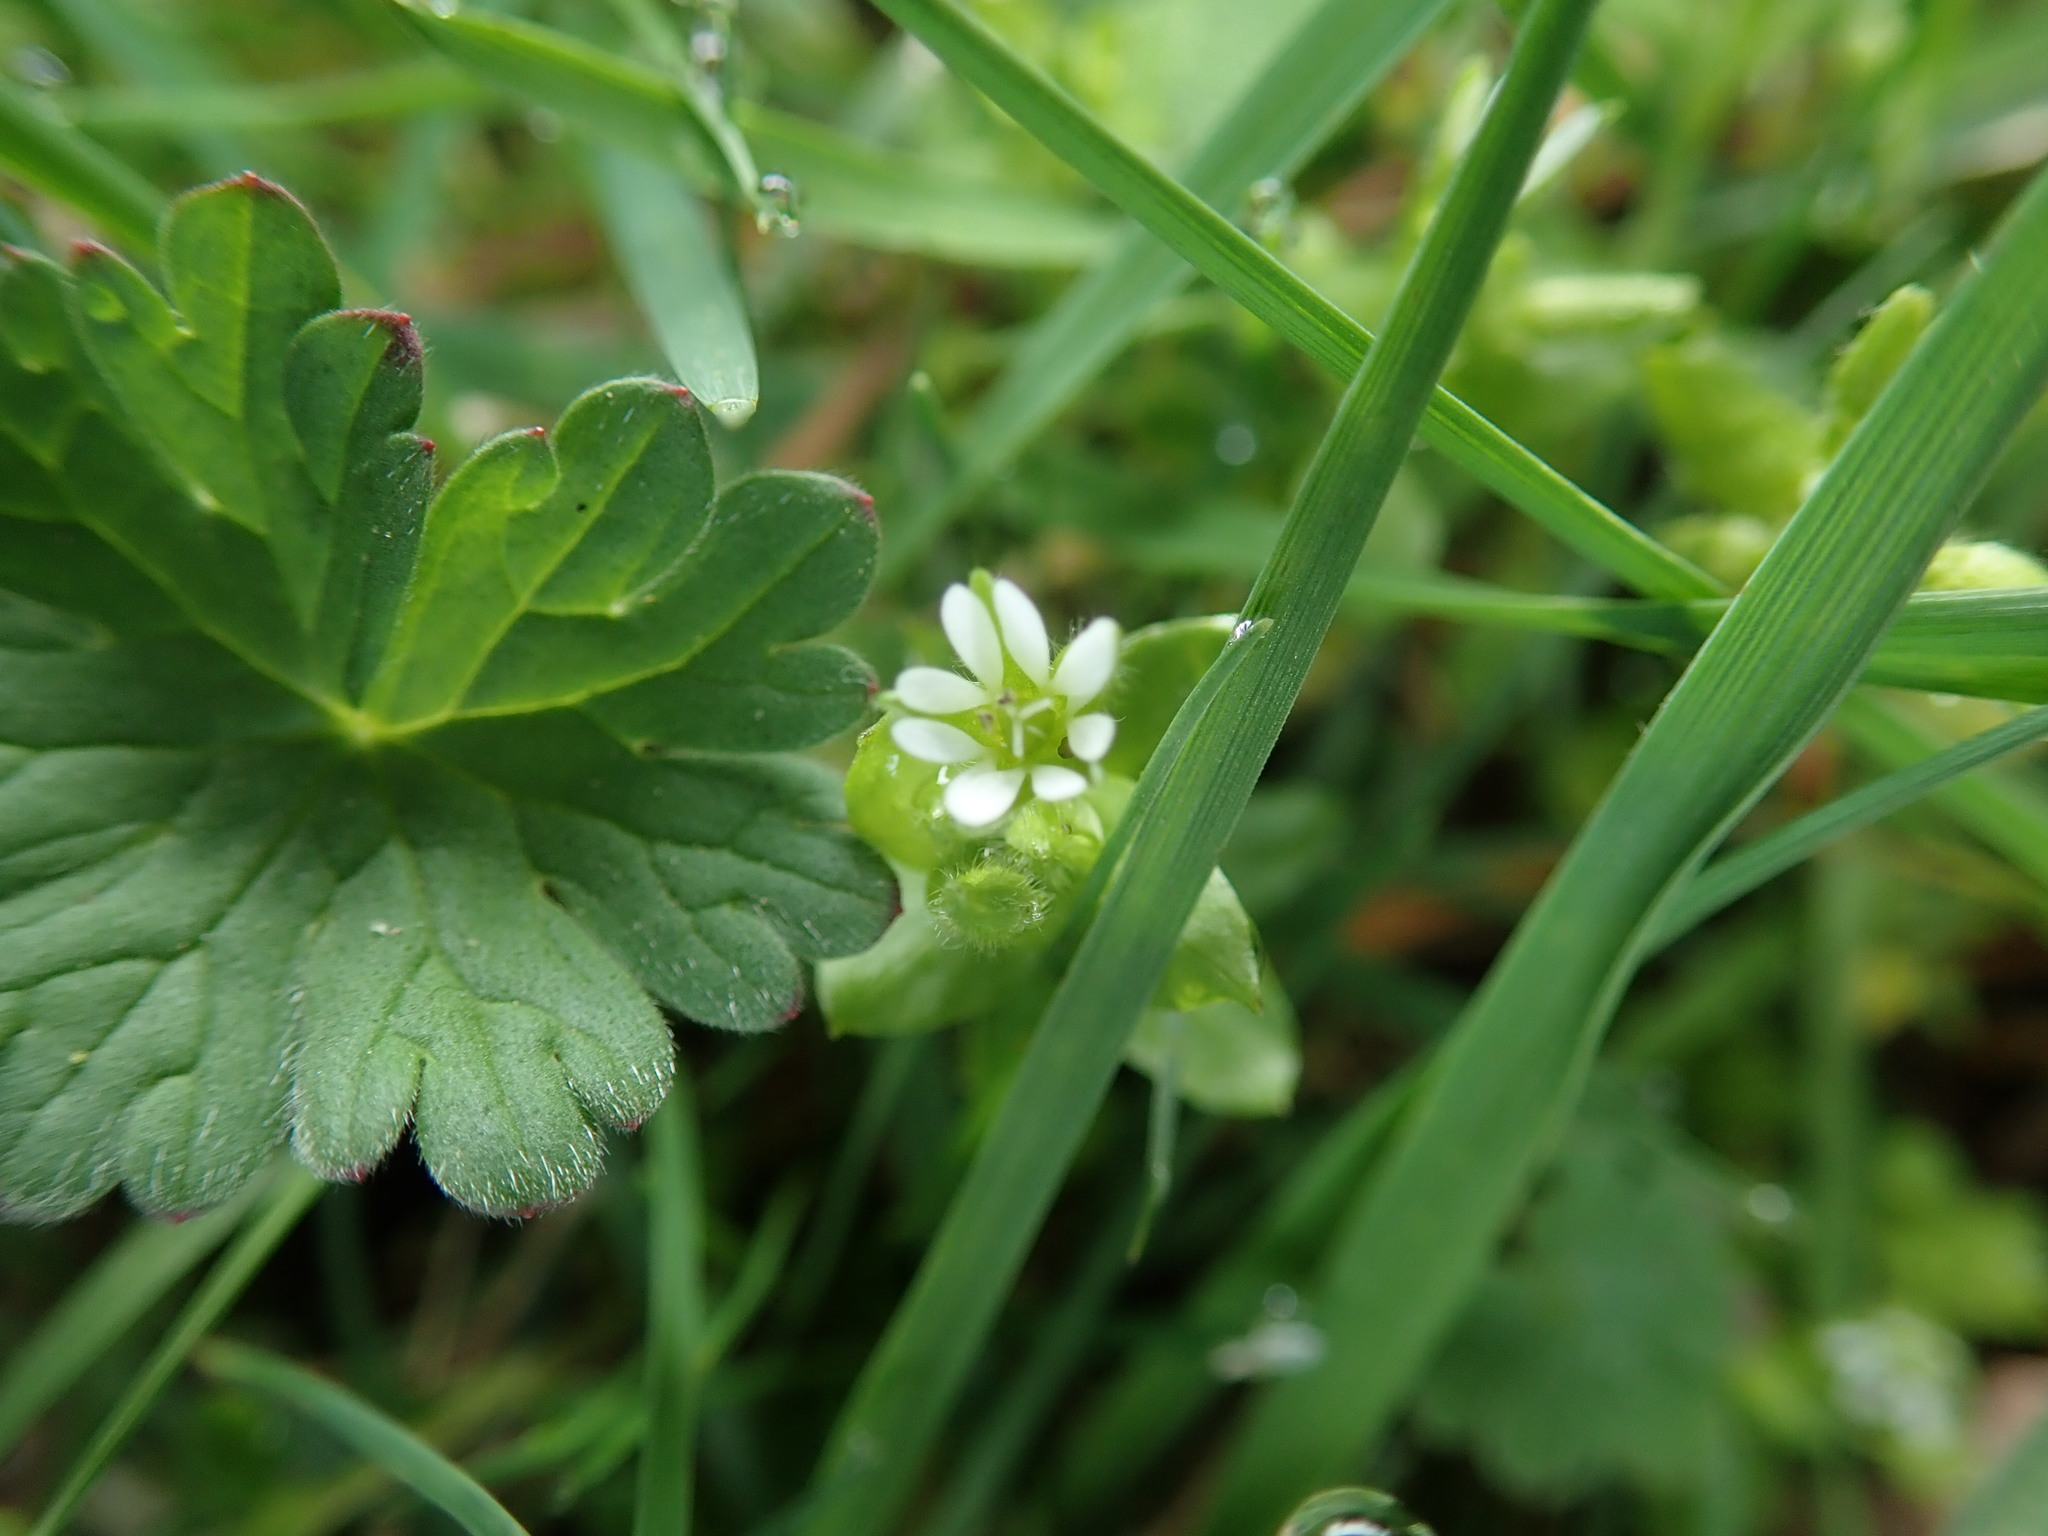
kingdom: Plantae
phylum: Tracheophyta
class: Magnoliopsida
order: Caryophyllales
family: Caryophyllaceae
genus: Stellaria
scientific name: Stellaria media
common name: Common chickweed
